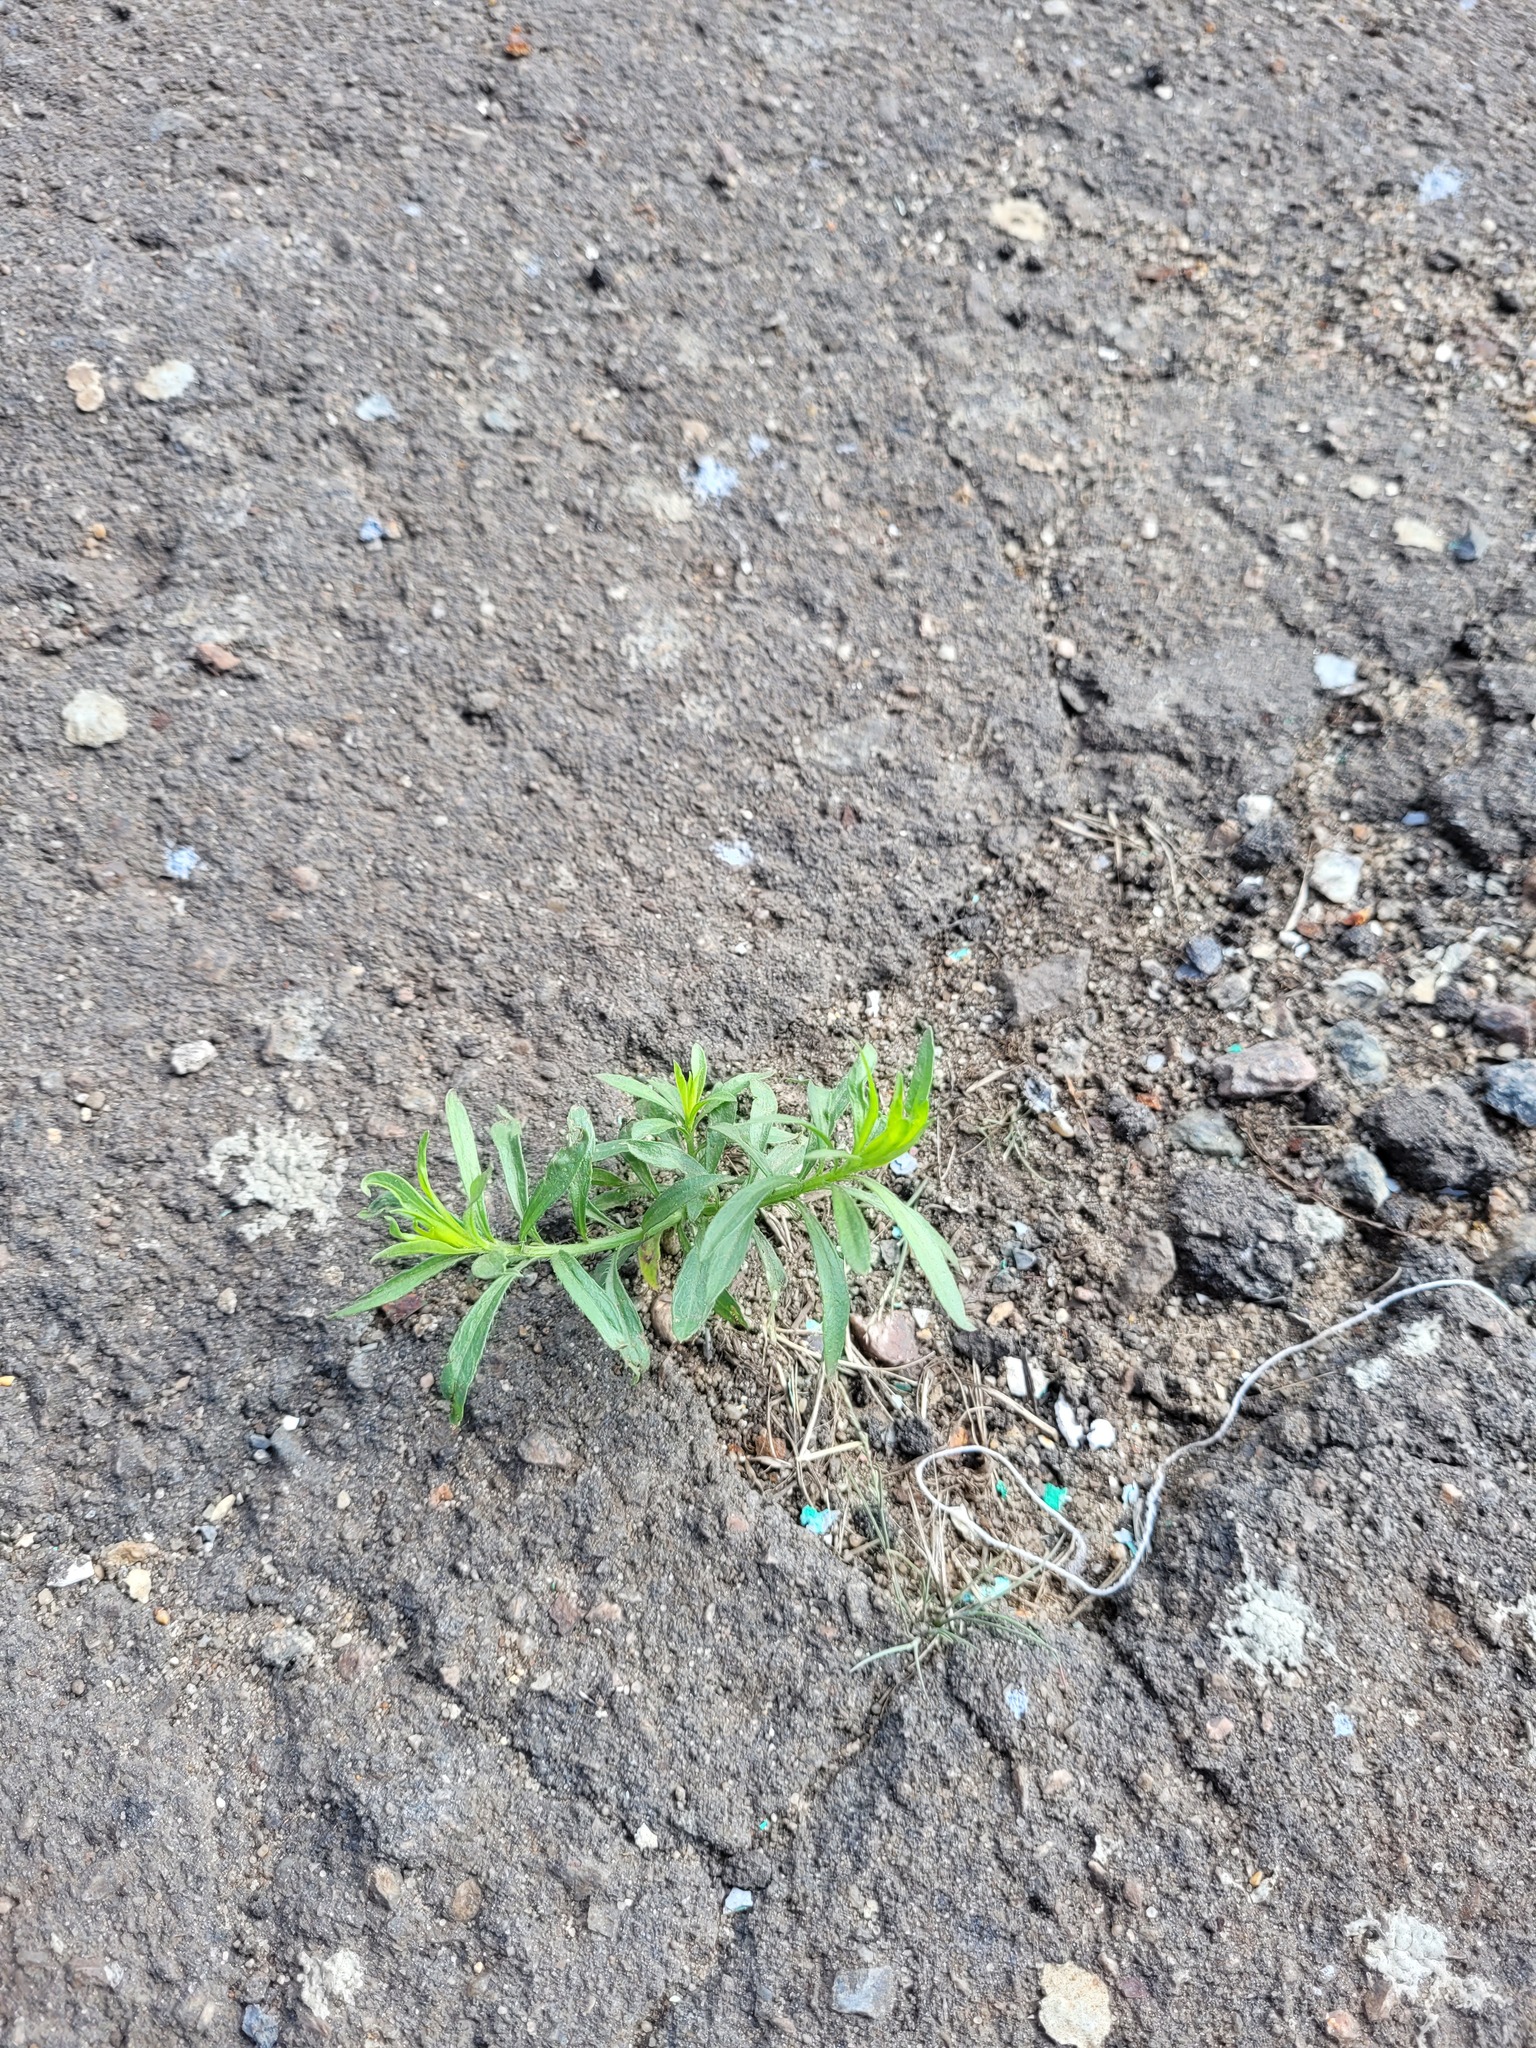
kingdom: Plantae
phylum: Tracheophyta
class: Magnoliopsida
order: Asterales
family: Asteraceae
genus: Erigeron
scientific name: Erigeron canadensis
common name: Canadian fleabane
